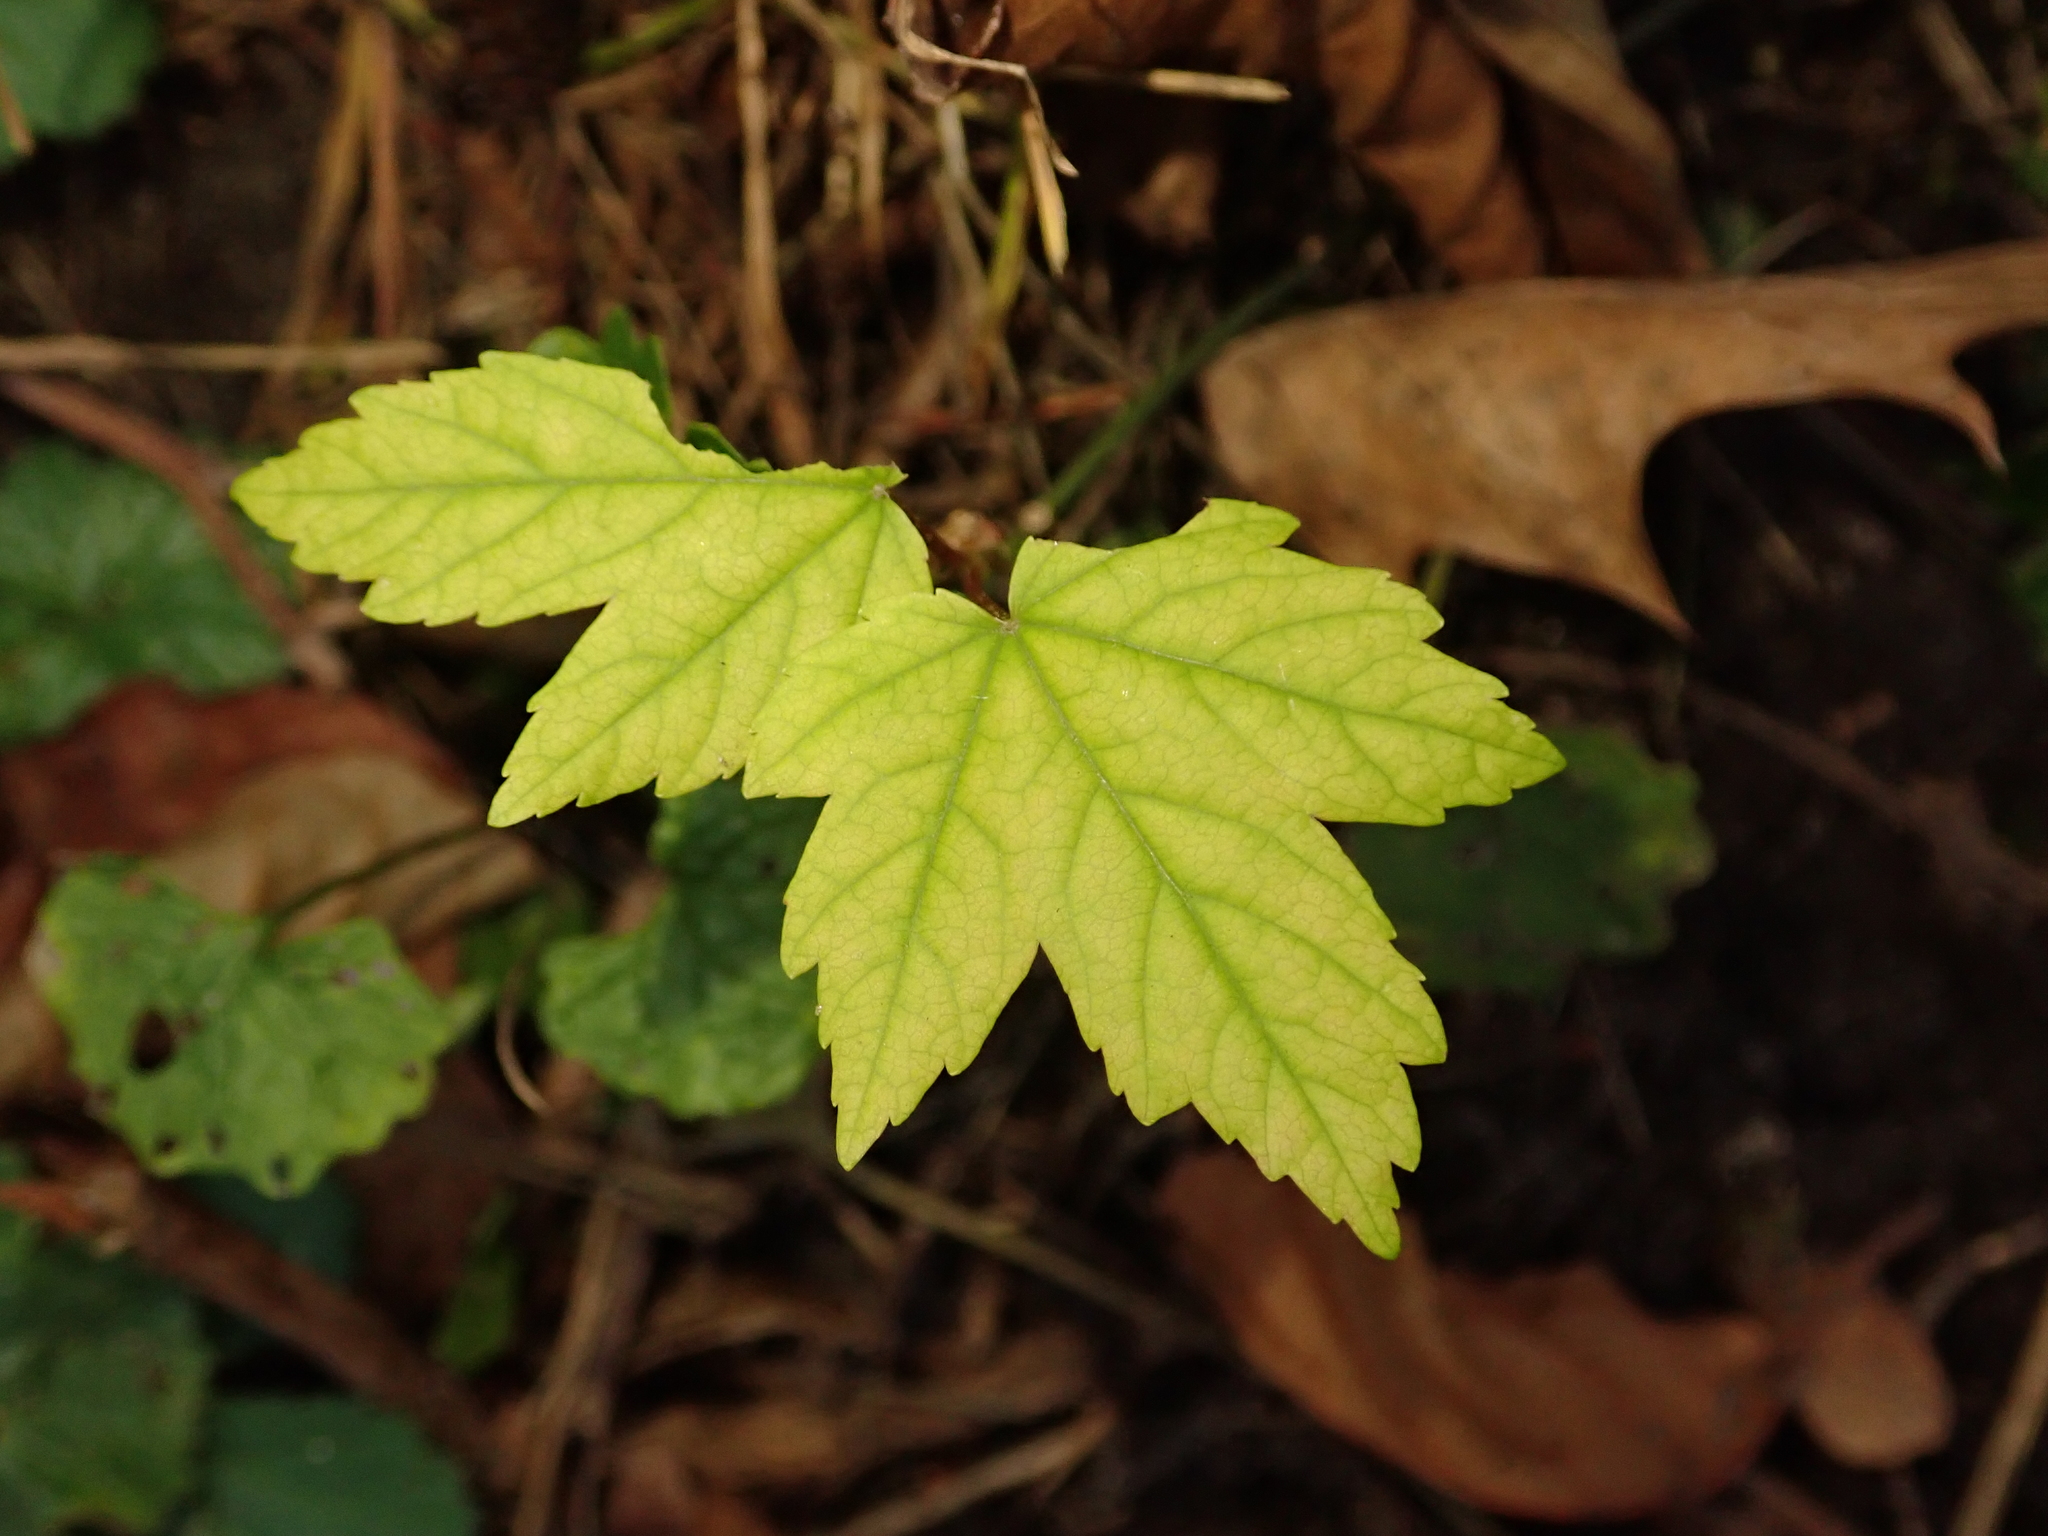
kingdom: Plantae
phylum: Tracheophyta
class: Magnoliopsida
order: Sapindales
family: Sapindaceae
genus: Acer
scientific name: Acer pseudoplatanus
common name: Sycamore
